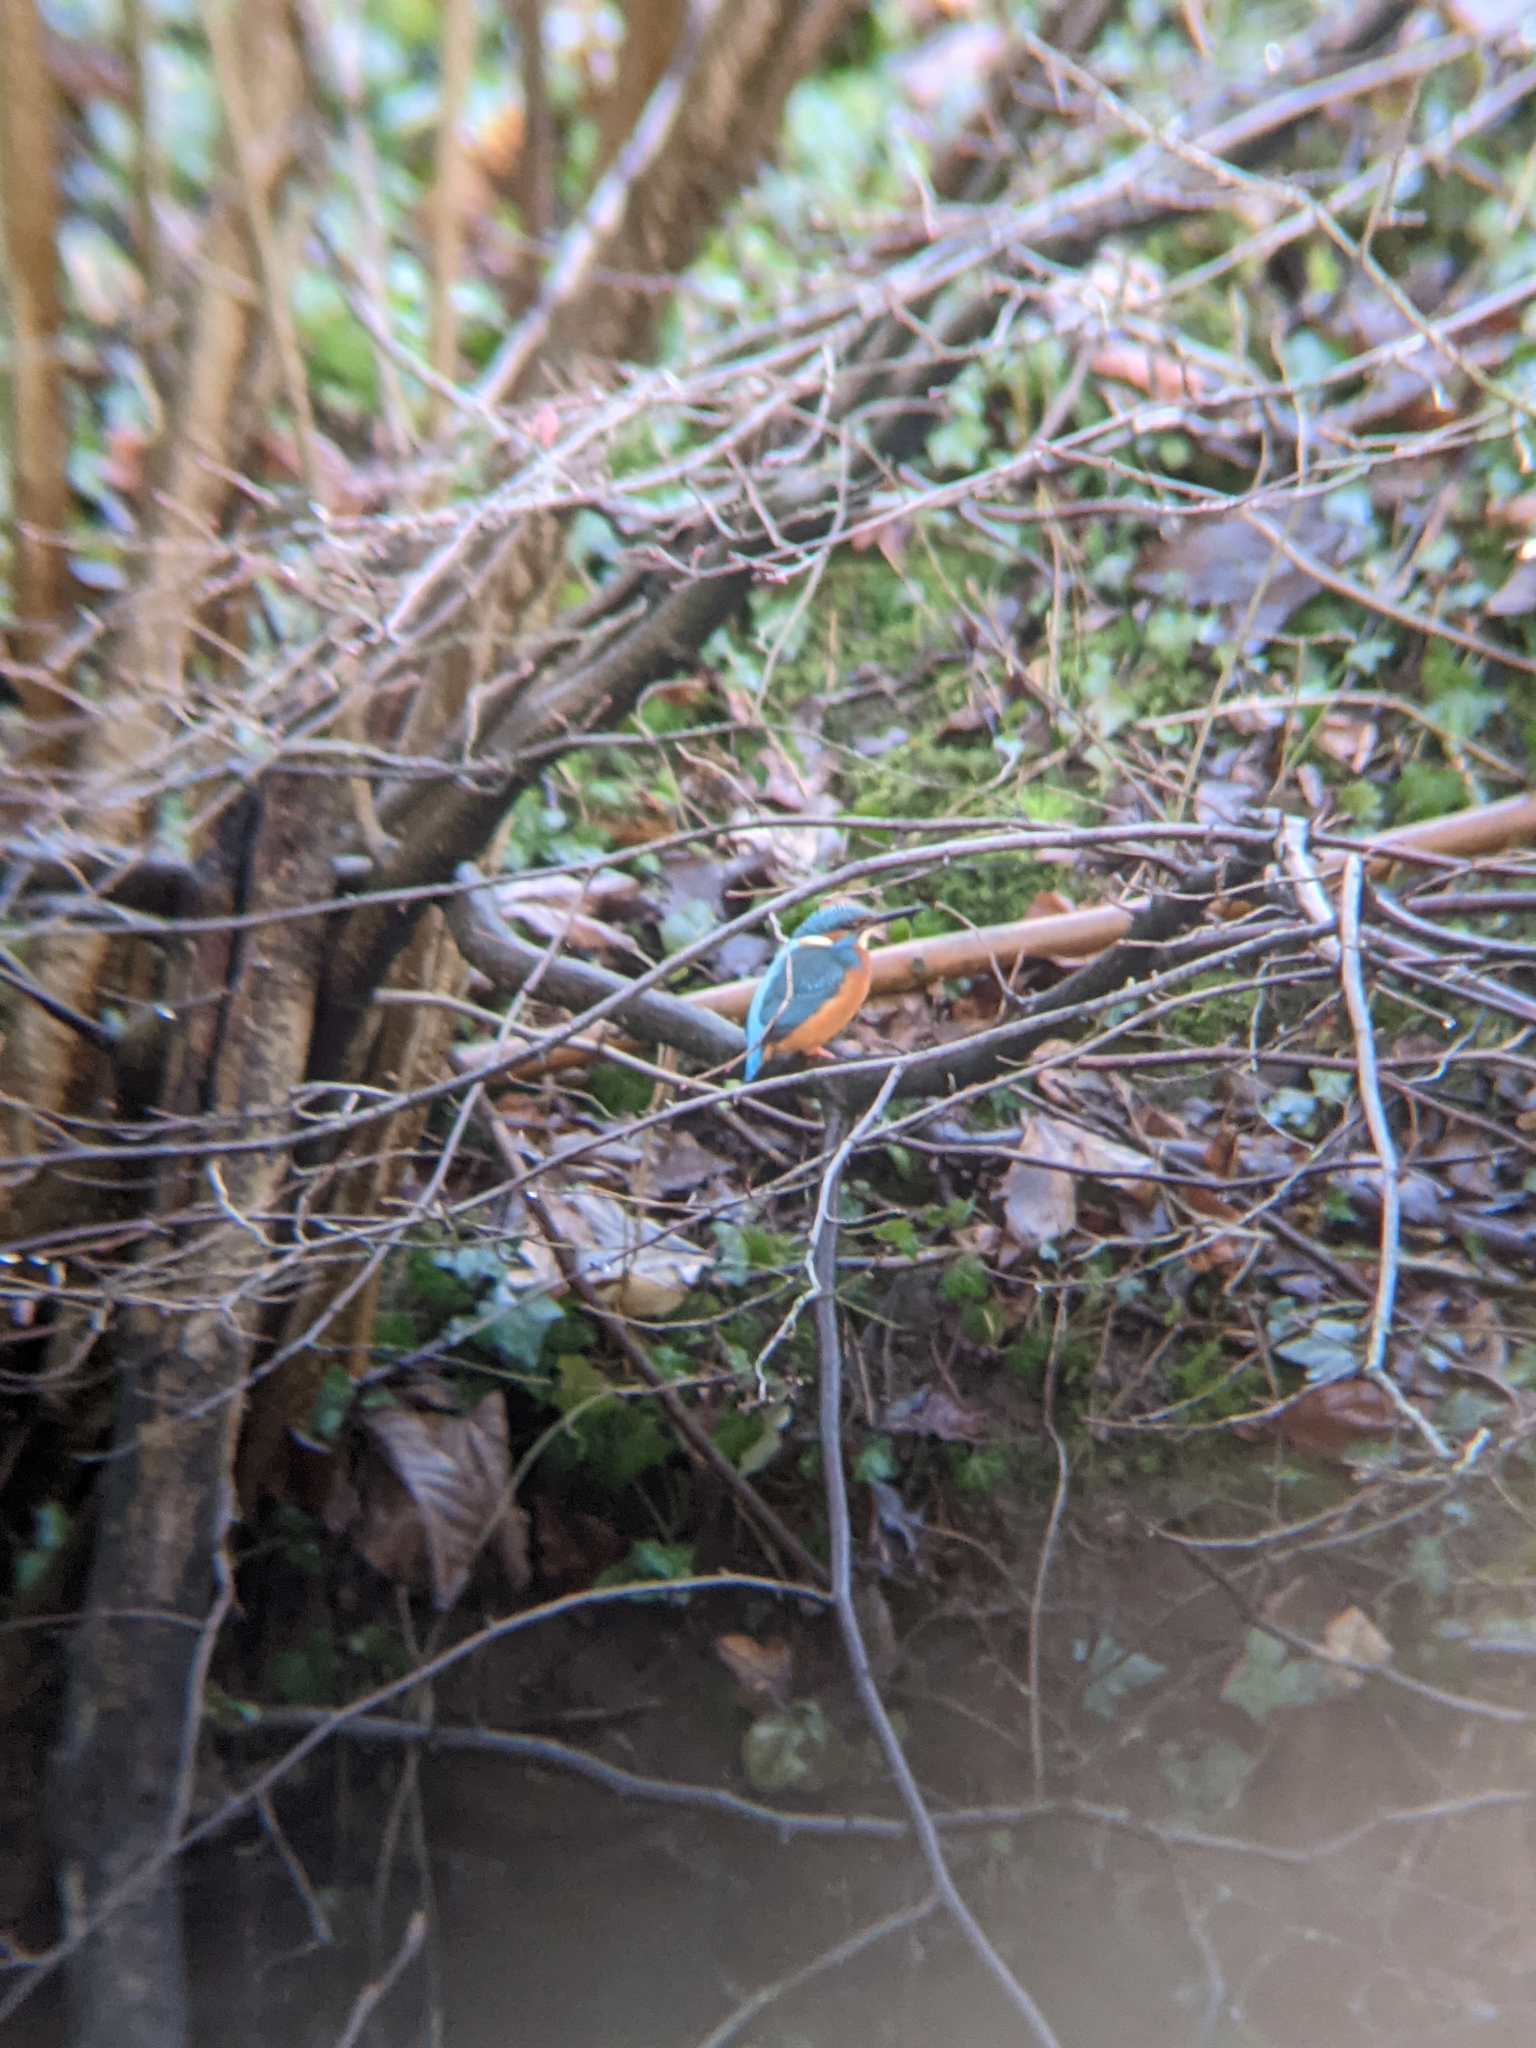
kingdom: Animalia
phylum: Chordata
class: Aves
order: Coraciiformes
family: Alcedinidae
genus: Alcedo
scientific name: Alcedo atthis
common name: Common kingfisher
